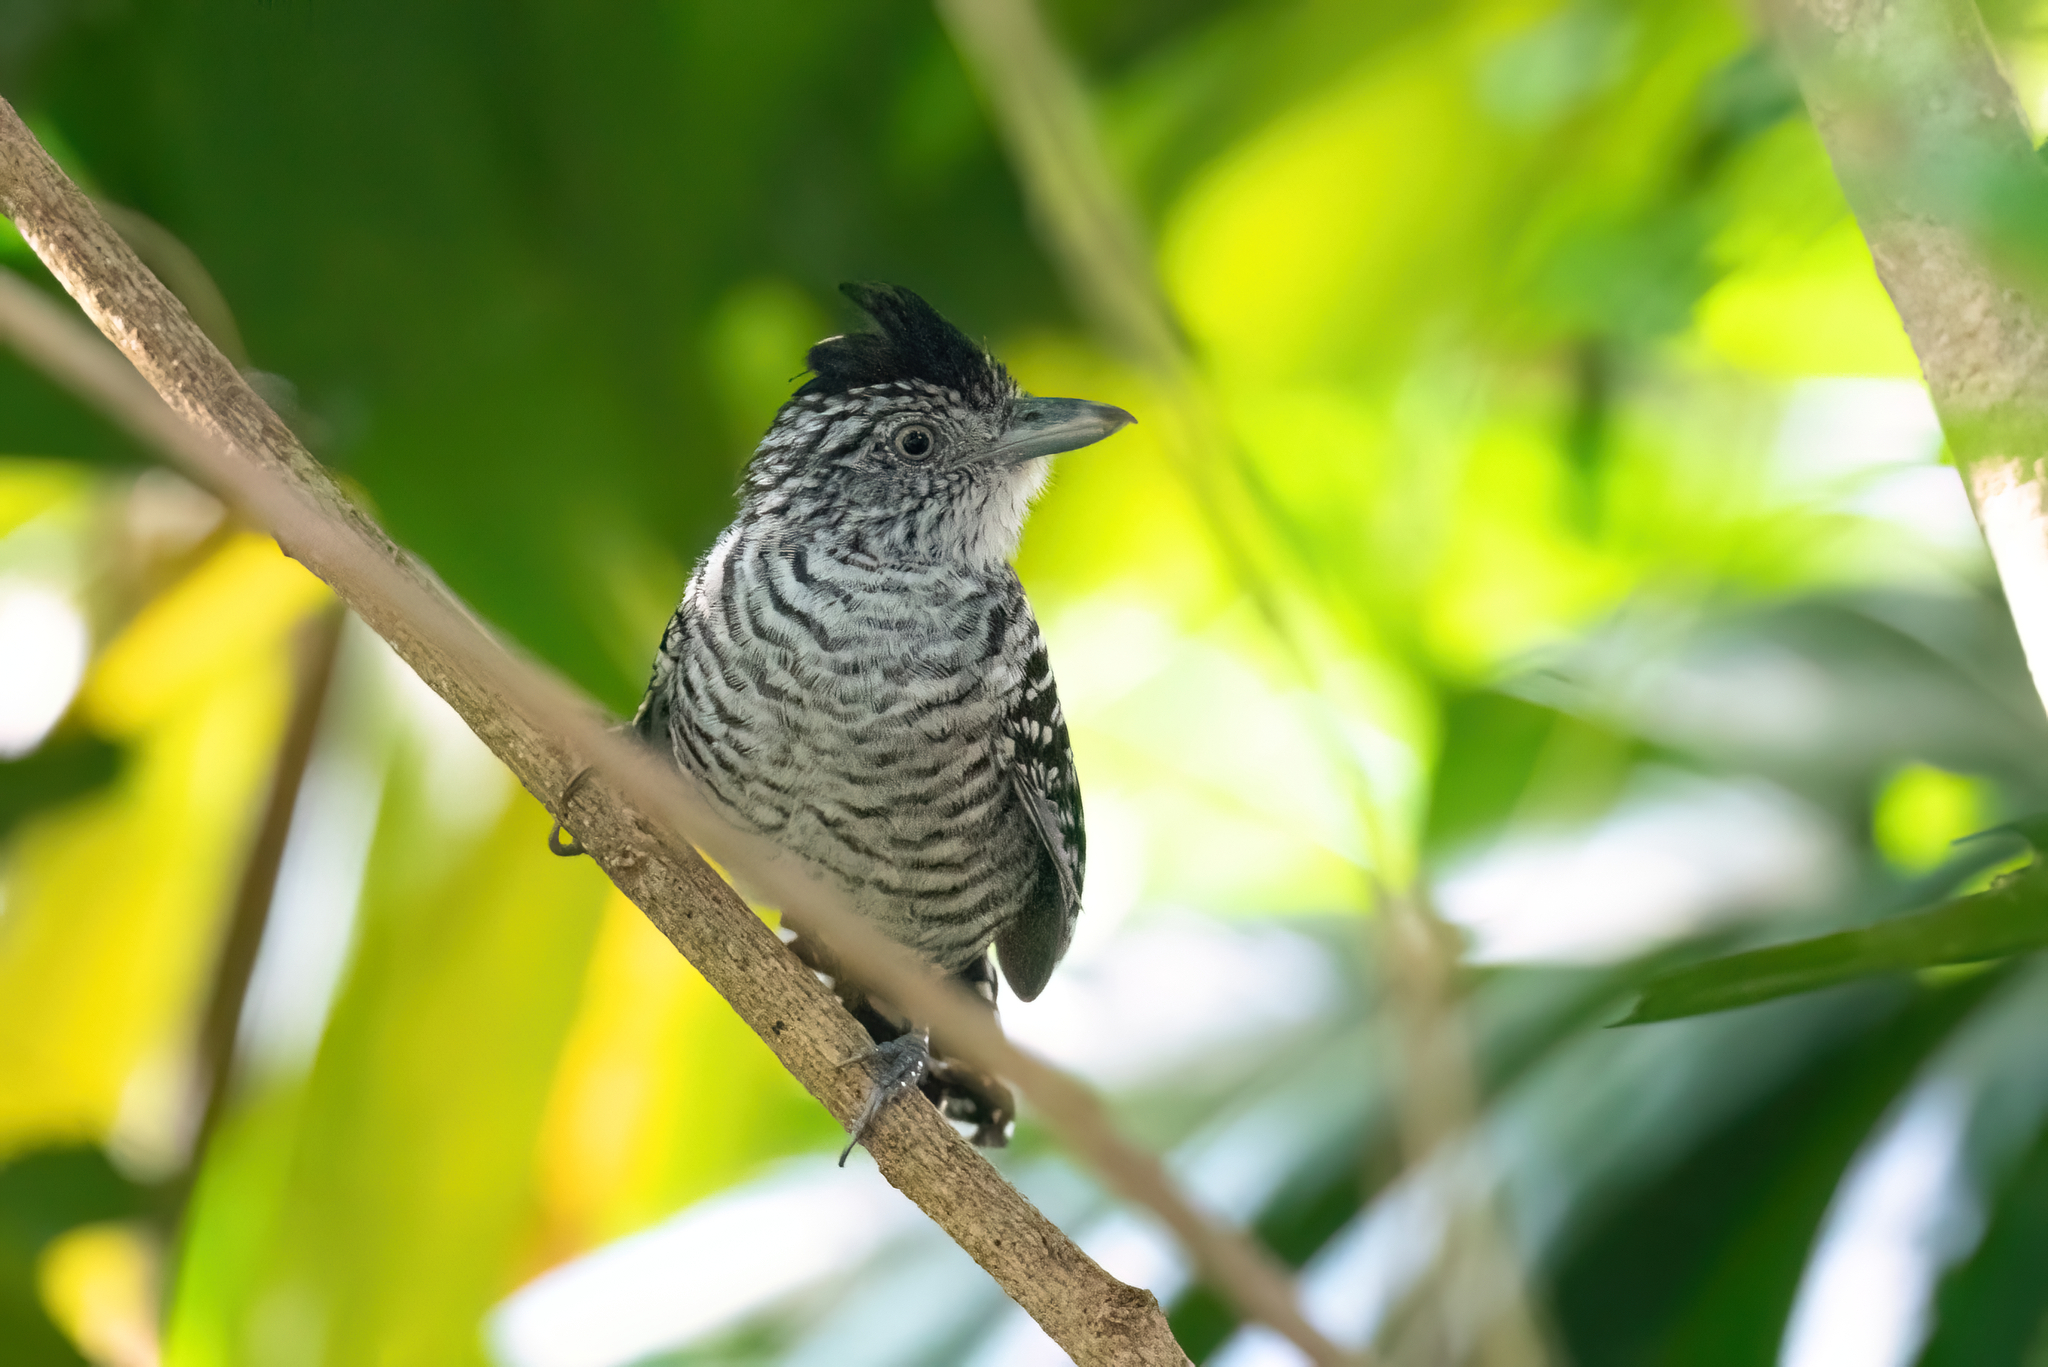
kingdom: Animalia
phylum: Chordata
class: Aves
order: Passeriformes
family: Thamnophilidae
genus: Thamnophilus
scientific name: Thamnophilus doliatus
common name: Barred antshrike
